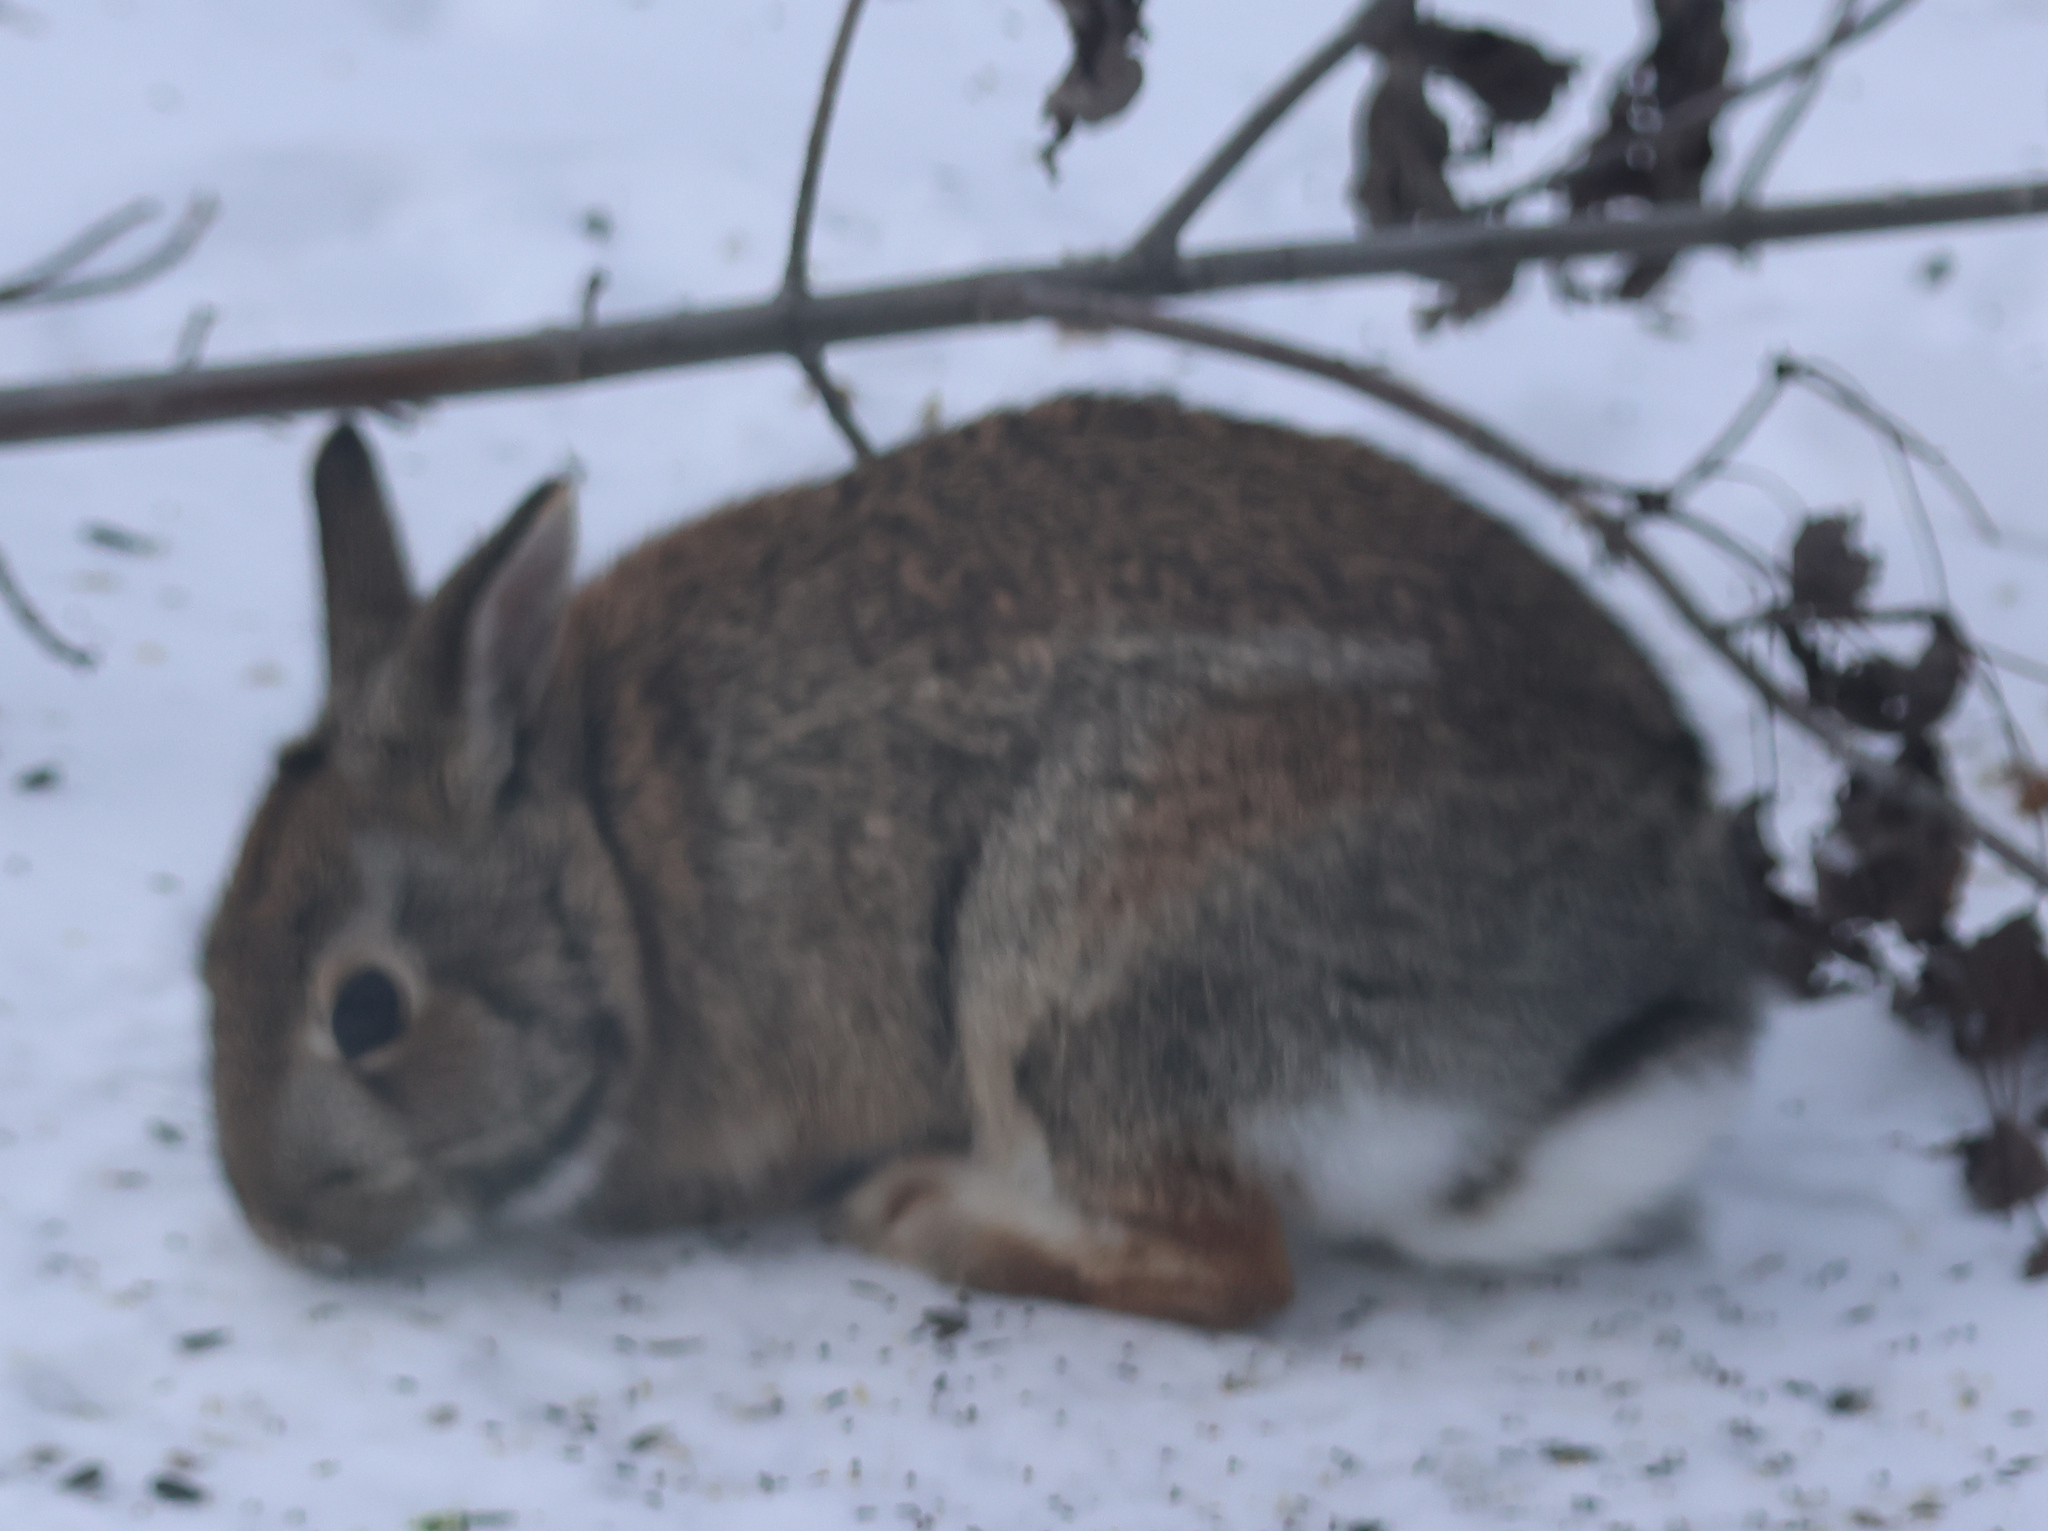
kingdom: Animalia
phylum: Chordata
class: Mammalia
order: Lagomorpha
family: Leporidae
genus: Sylvilagus
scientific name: Sylvilagus floridanus
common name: Eastern cottontail
